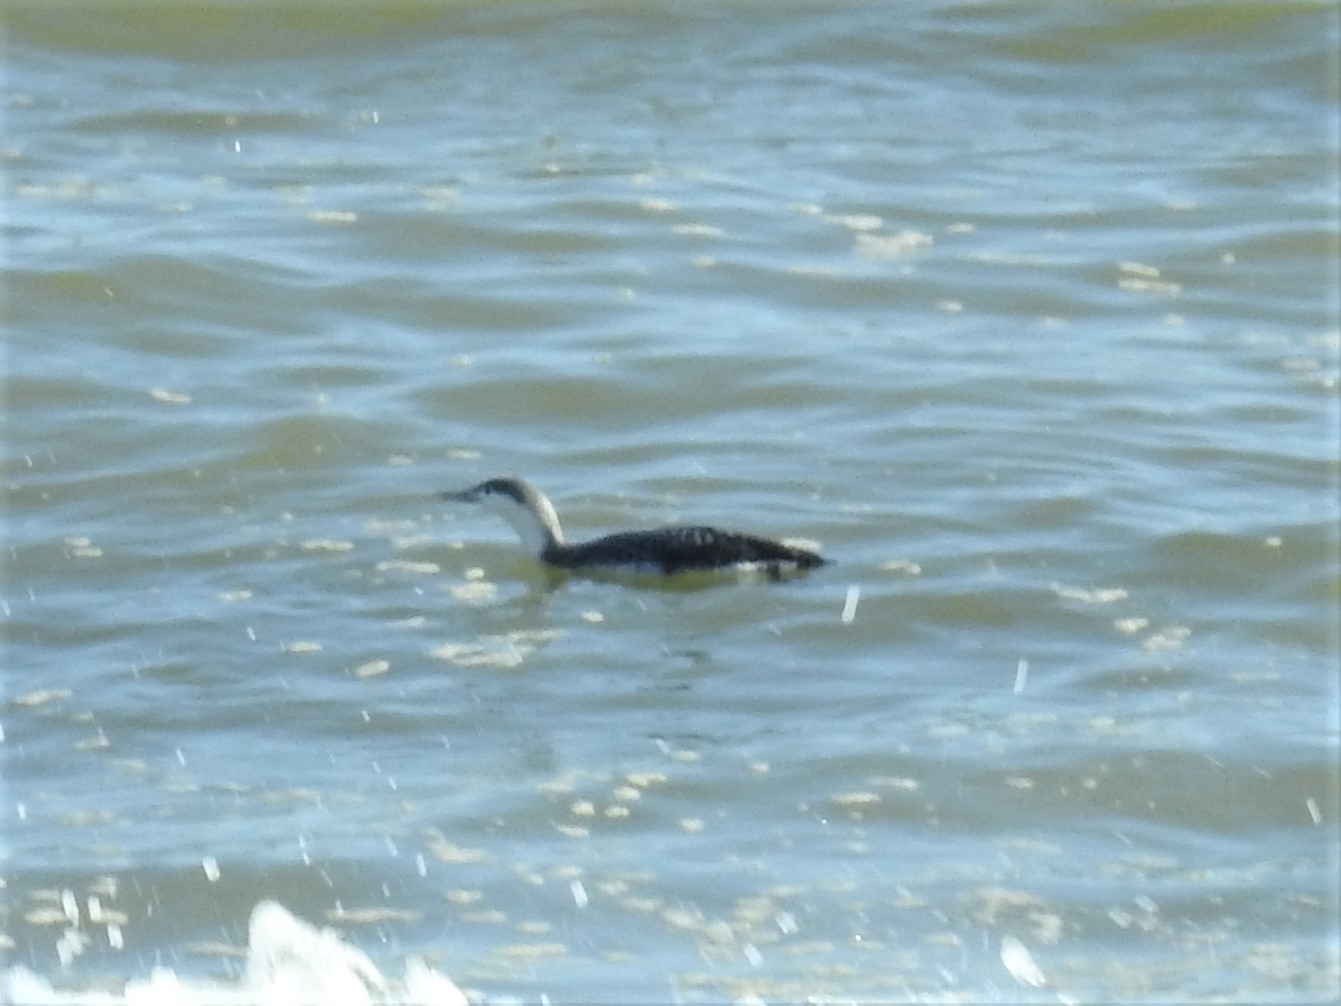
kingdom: Animalia
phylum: Chordata
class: Aves
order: Gaviiformes
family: Gaviidae
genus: Gavia
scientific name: Gavia stellata
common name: Red-throated loon
